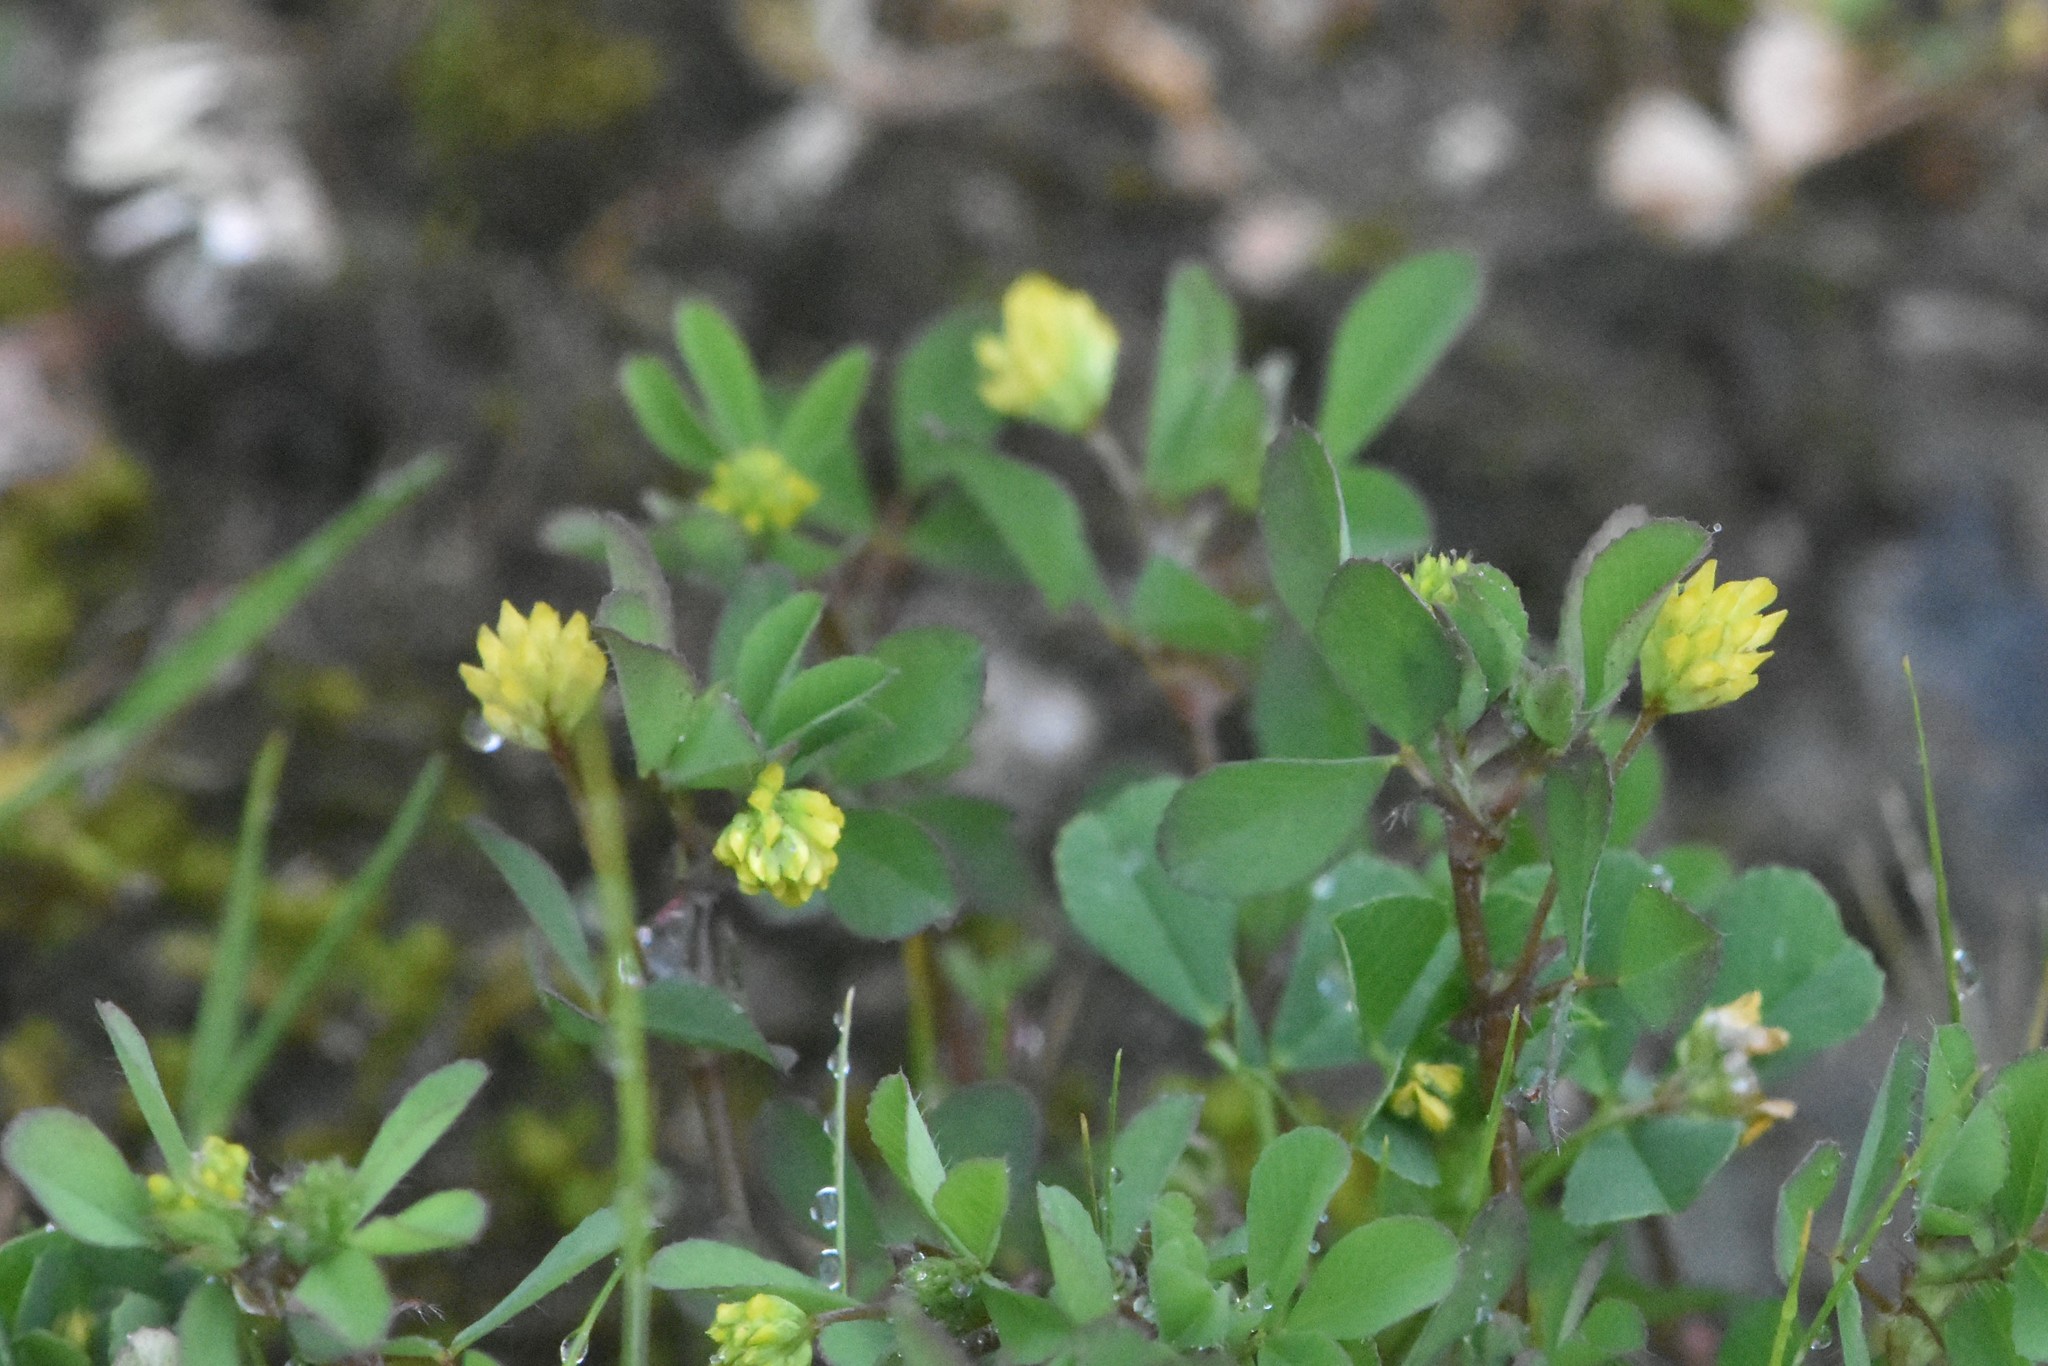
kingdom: Plantae
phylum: Tracheophyta
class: Magnoliopsida
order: Fabales
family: Fabaceae
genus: Trifolium
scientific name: Trifolium dubium
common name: Suckling clover
